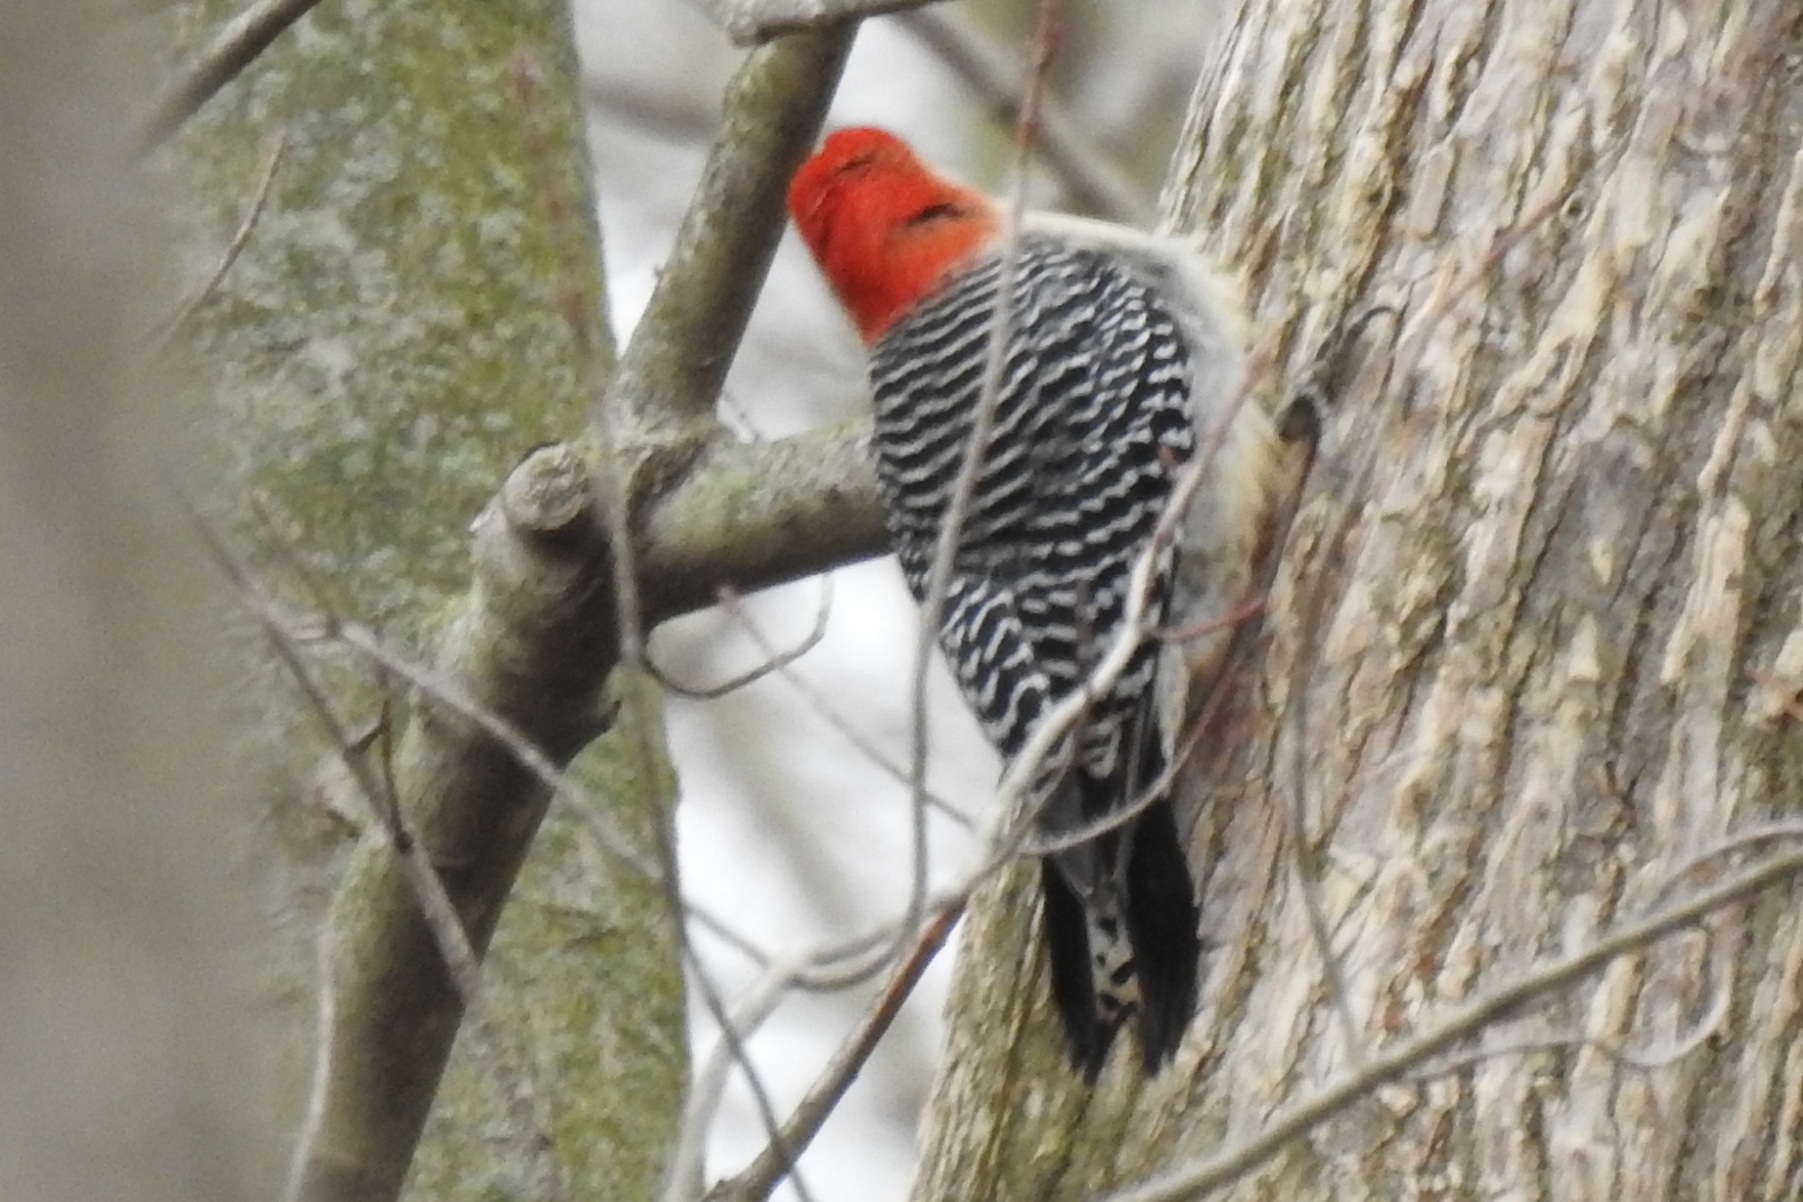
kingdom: Animalia
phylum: Chordata
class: Aves
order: Piciformes
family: Picidae
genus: Melanerpes
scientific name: Melanerpes carolinus
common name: Red-bellied woodpecker
